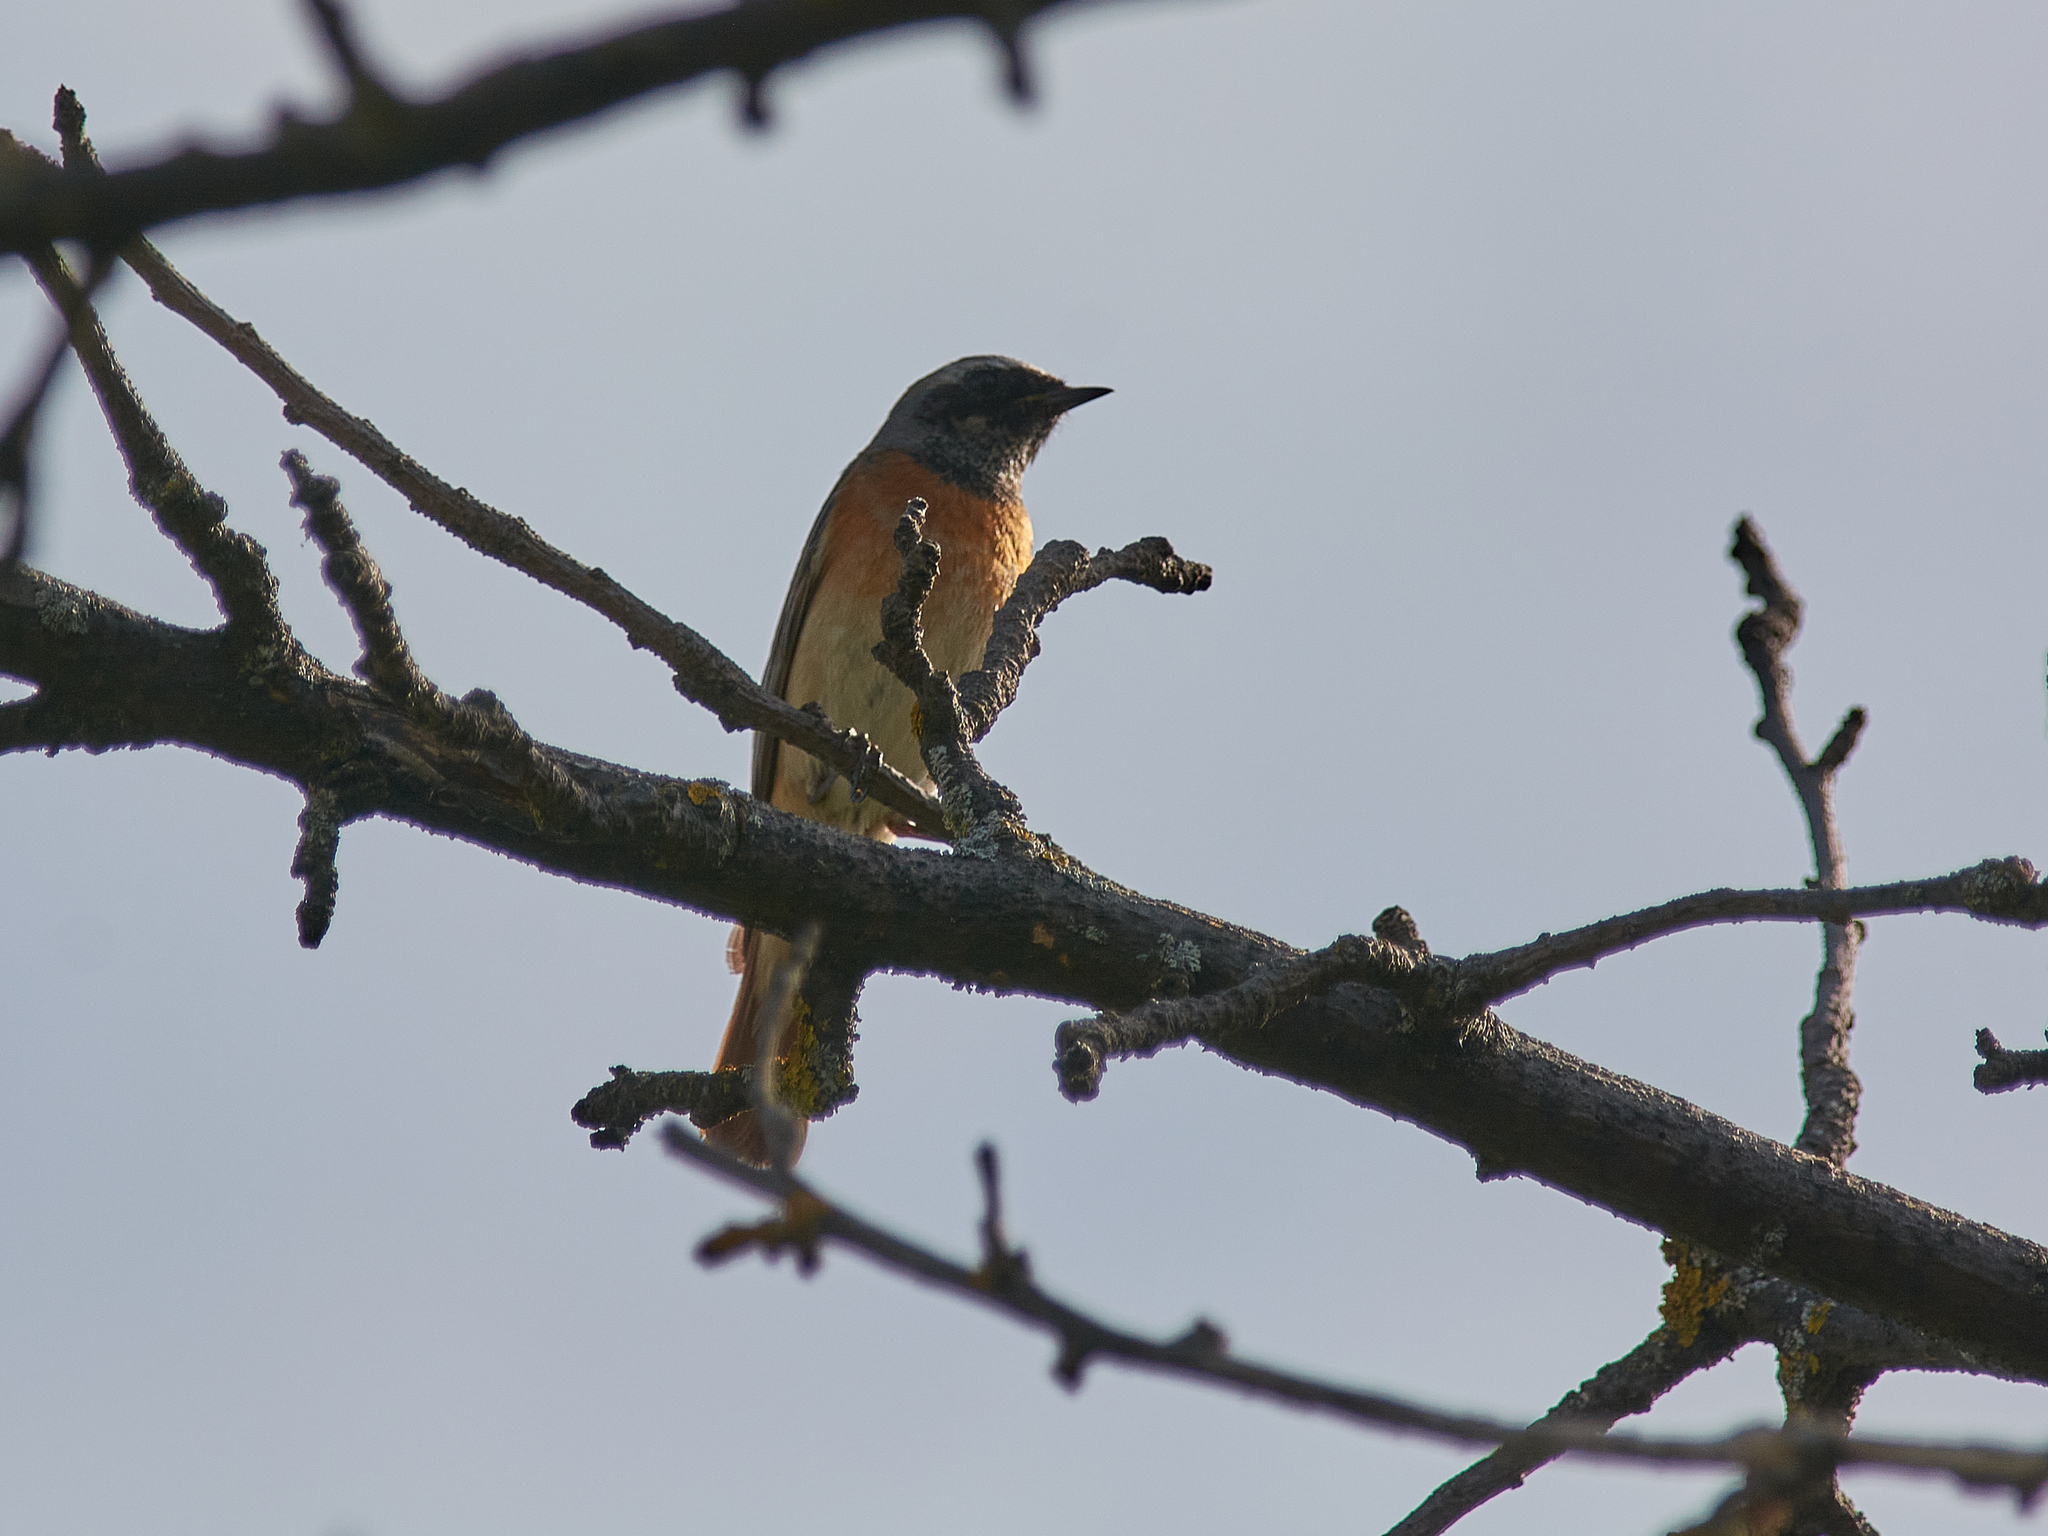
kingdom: Animalia
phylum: Chordata
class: Aves
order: Passeriformes
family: Muscicapidae
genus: Phoenicurus
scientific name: Phoenicurus phoenicurus
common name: Common redstart
